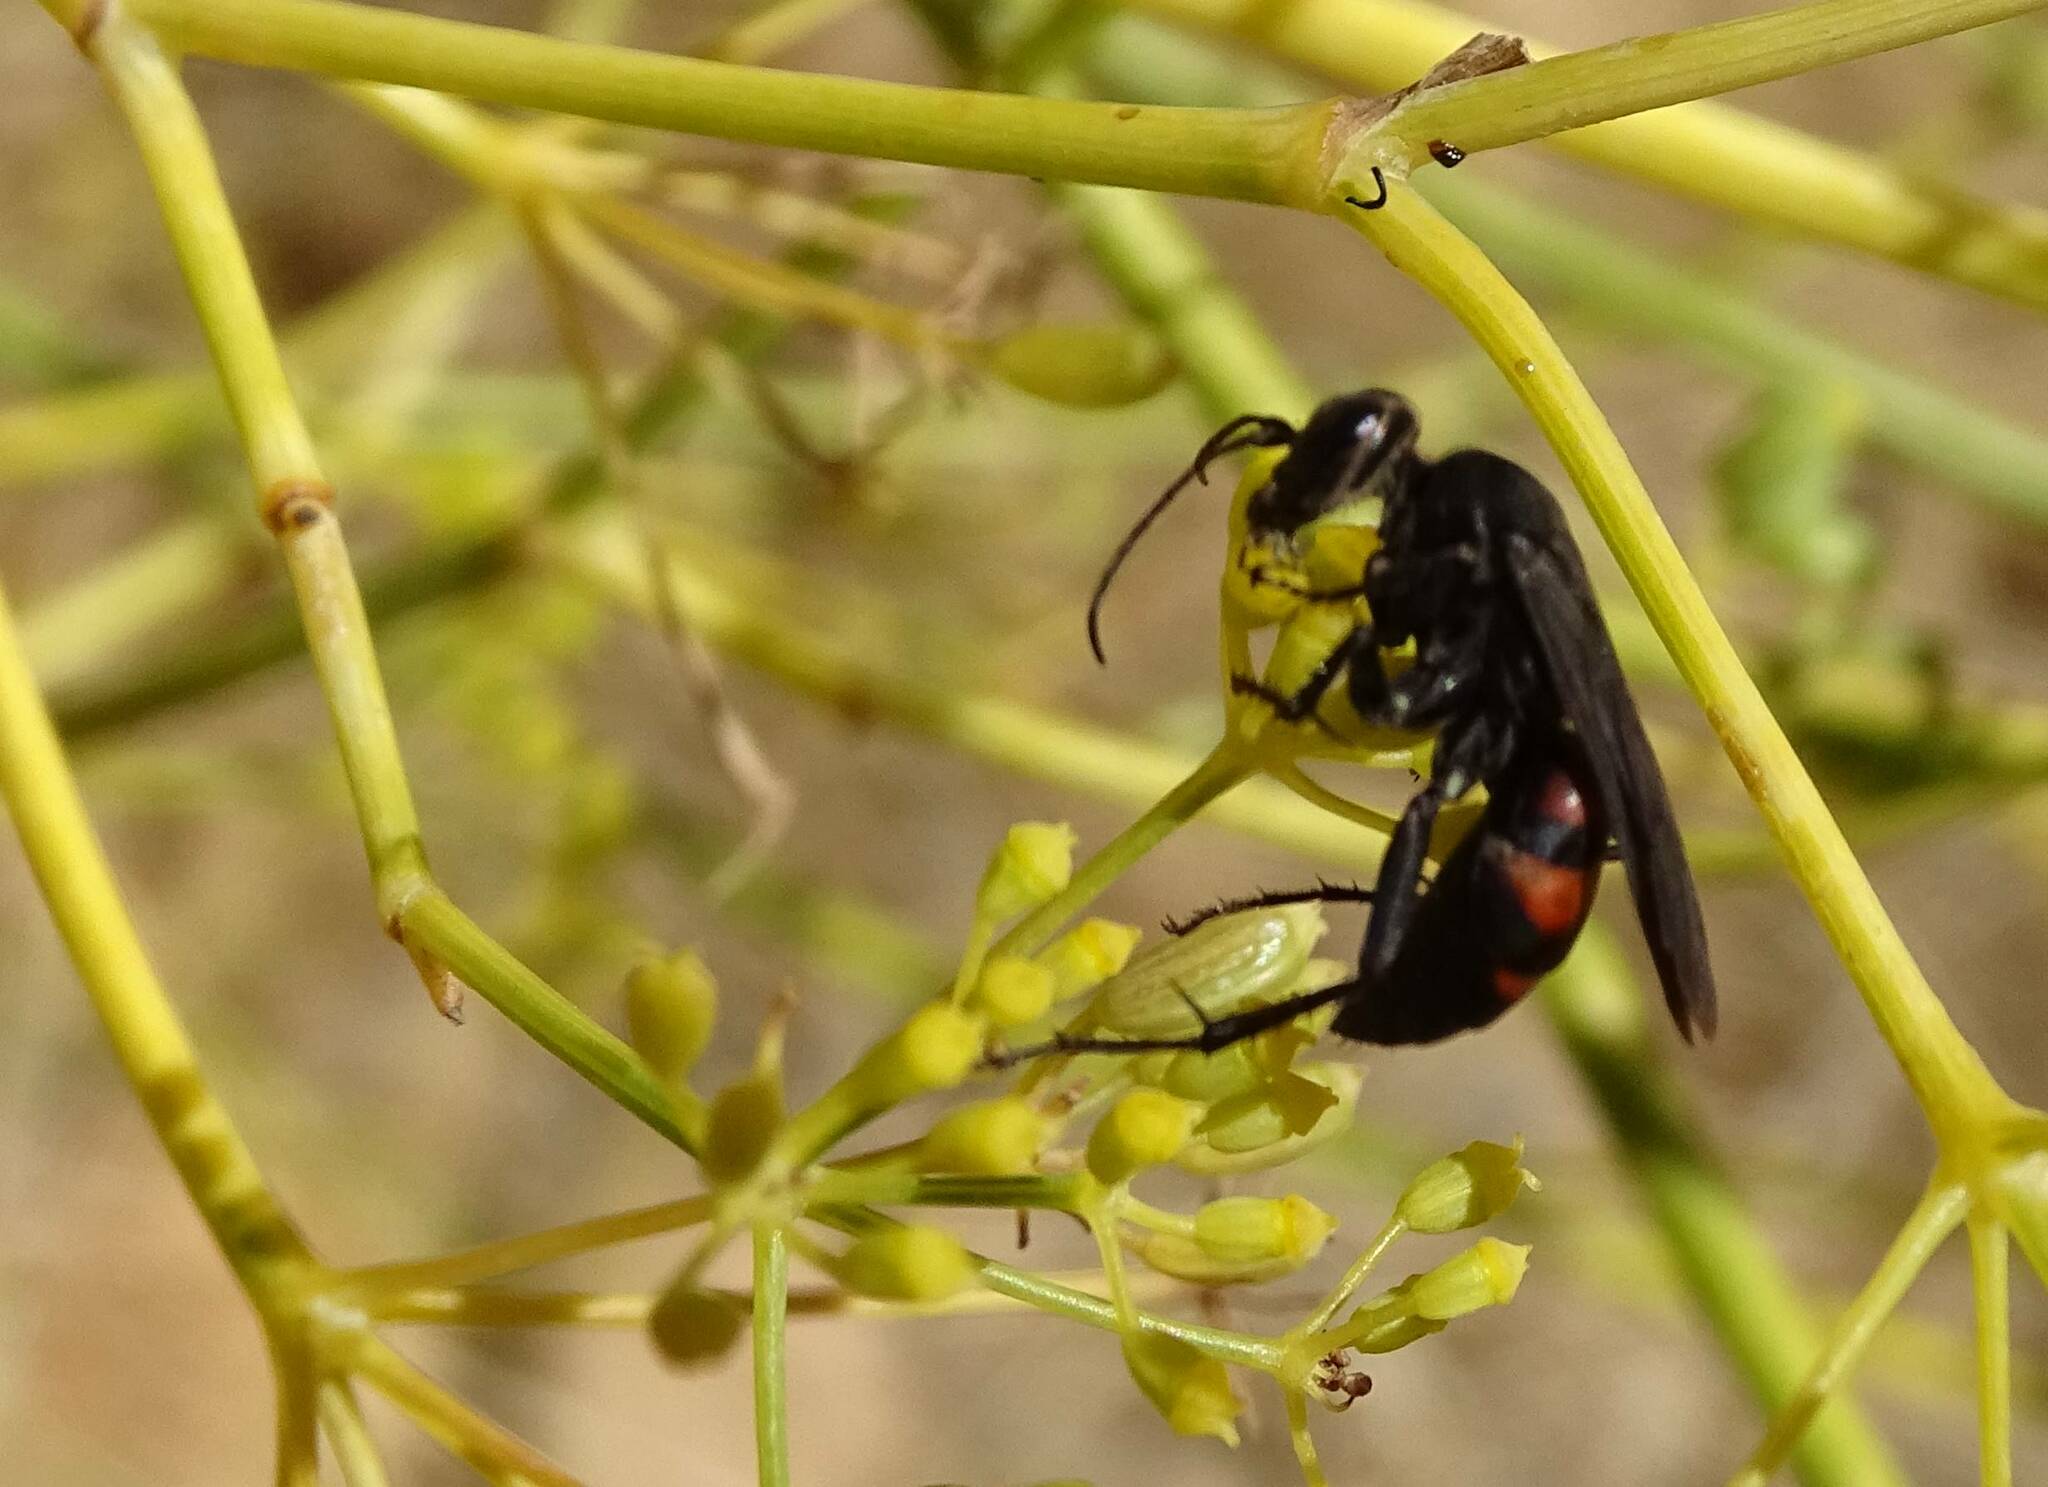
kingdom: Animalia
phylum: Arthropoda
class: Insecta
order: Hymenoptera
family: Pompilidae
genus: Anoplius
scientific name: Anoplius viaticus
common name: Black banded spider wasp
